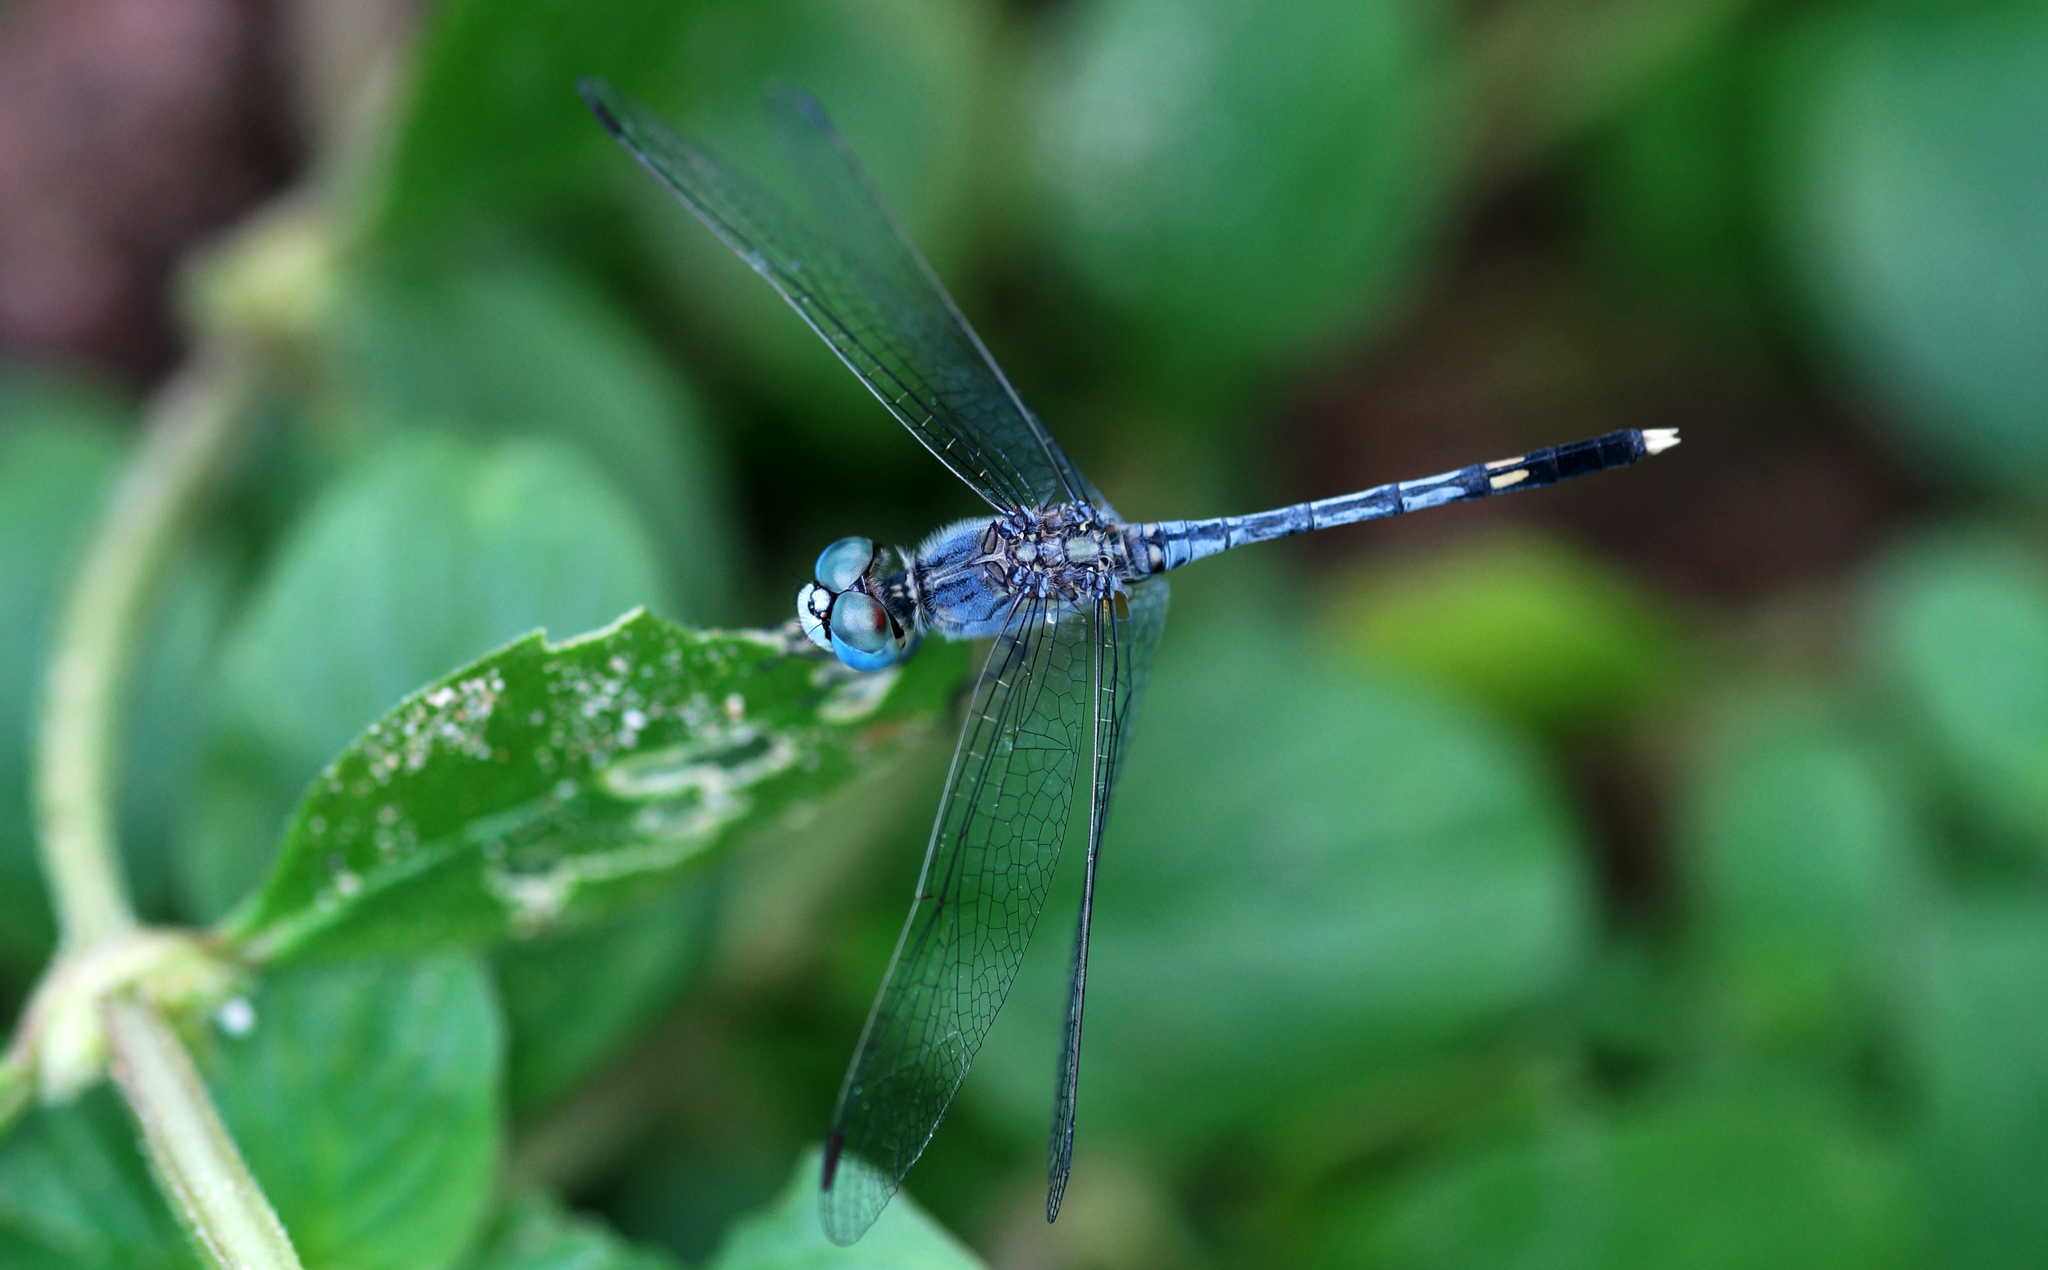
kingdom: Animalia
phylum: Arthropoda
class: Insecta
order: Odonata
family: Libellulidae
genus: Diplacodes
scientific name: Diplacodes trivialis
